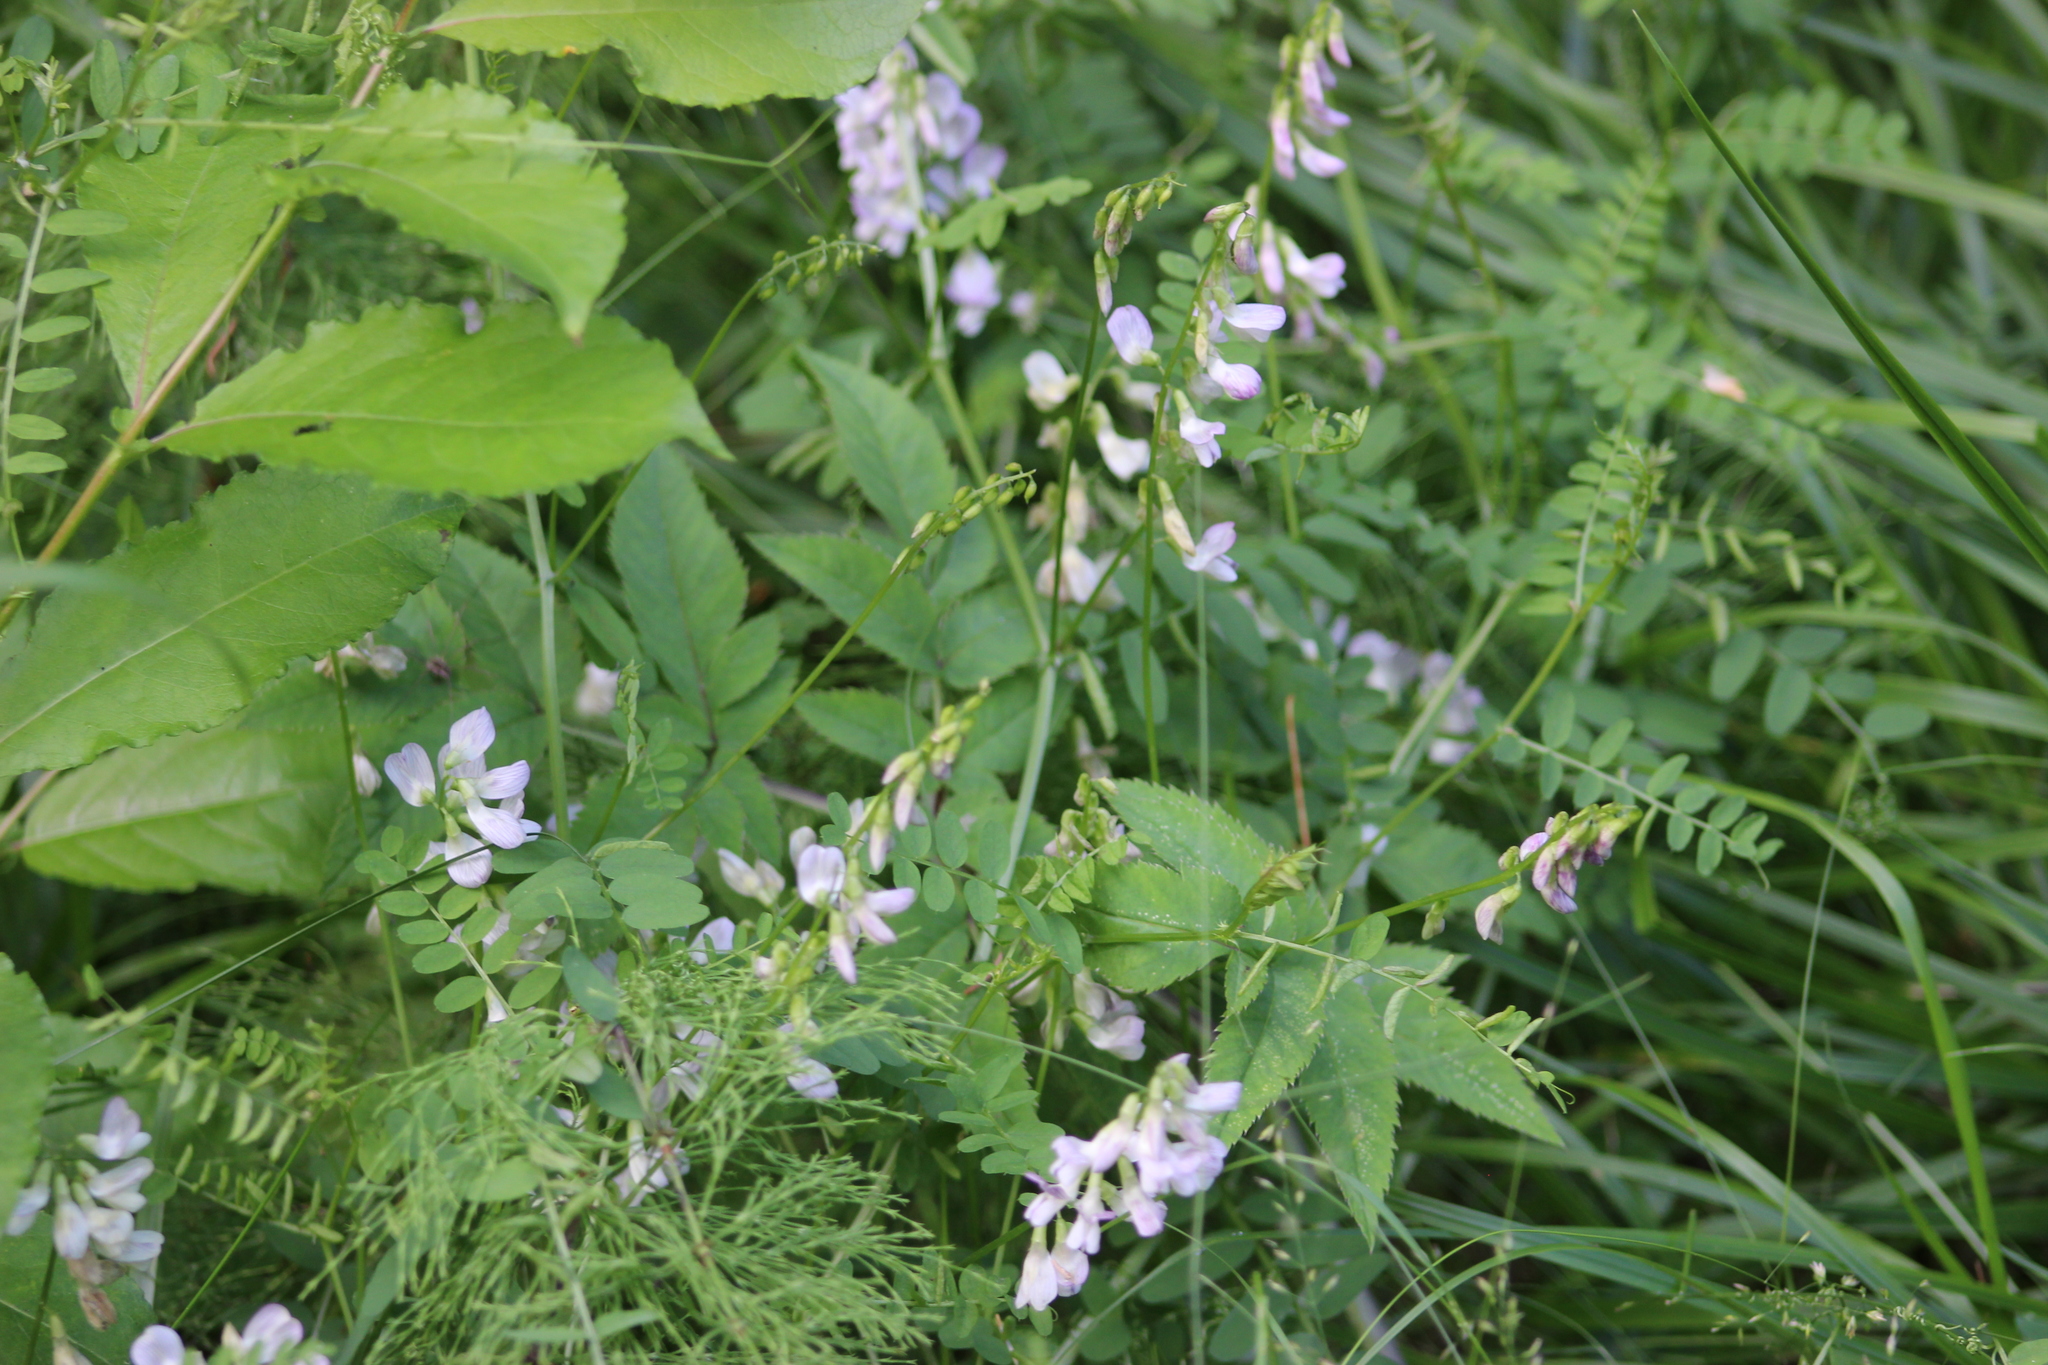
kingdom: Plantae
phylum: Tracheophyta
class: Magnoliopsida
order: Fabales
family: Fabaceae
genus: Vicia
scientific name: Vicia sylvatica
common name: Wood vetch
